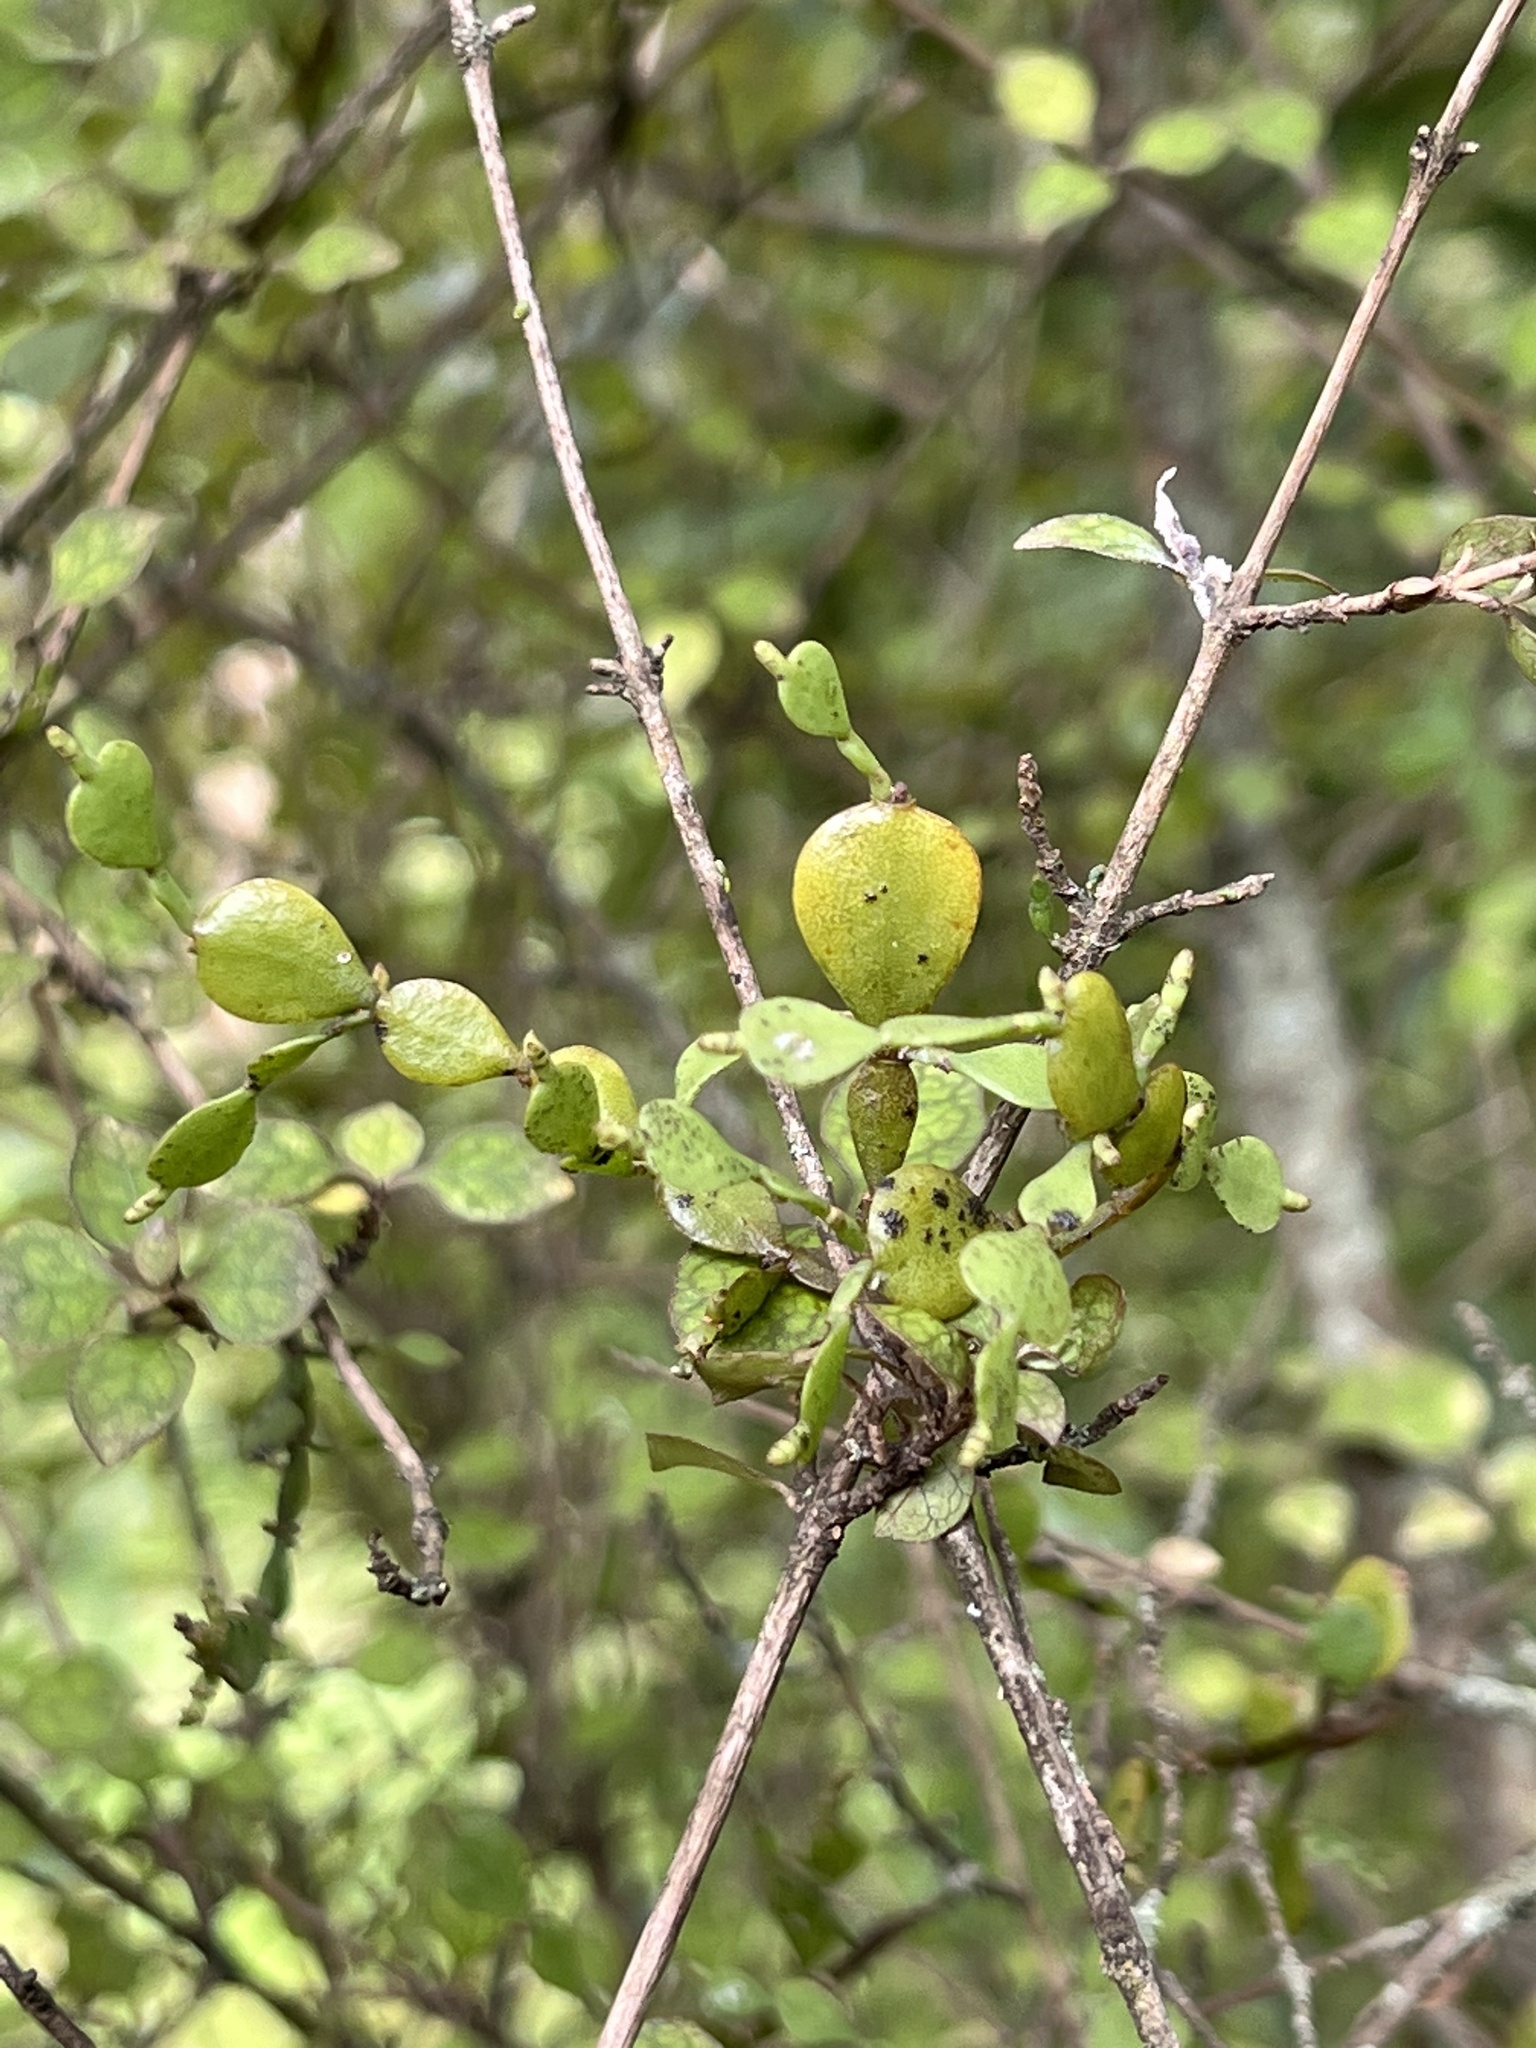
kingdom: Plantae
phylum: Tracheophyta
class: Magnoliopsida
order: Santalales
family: Viscaceae
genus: Korthalsella
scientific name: Korthalsella lindsayi
